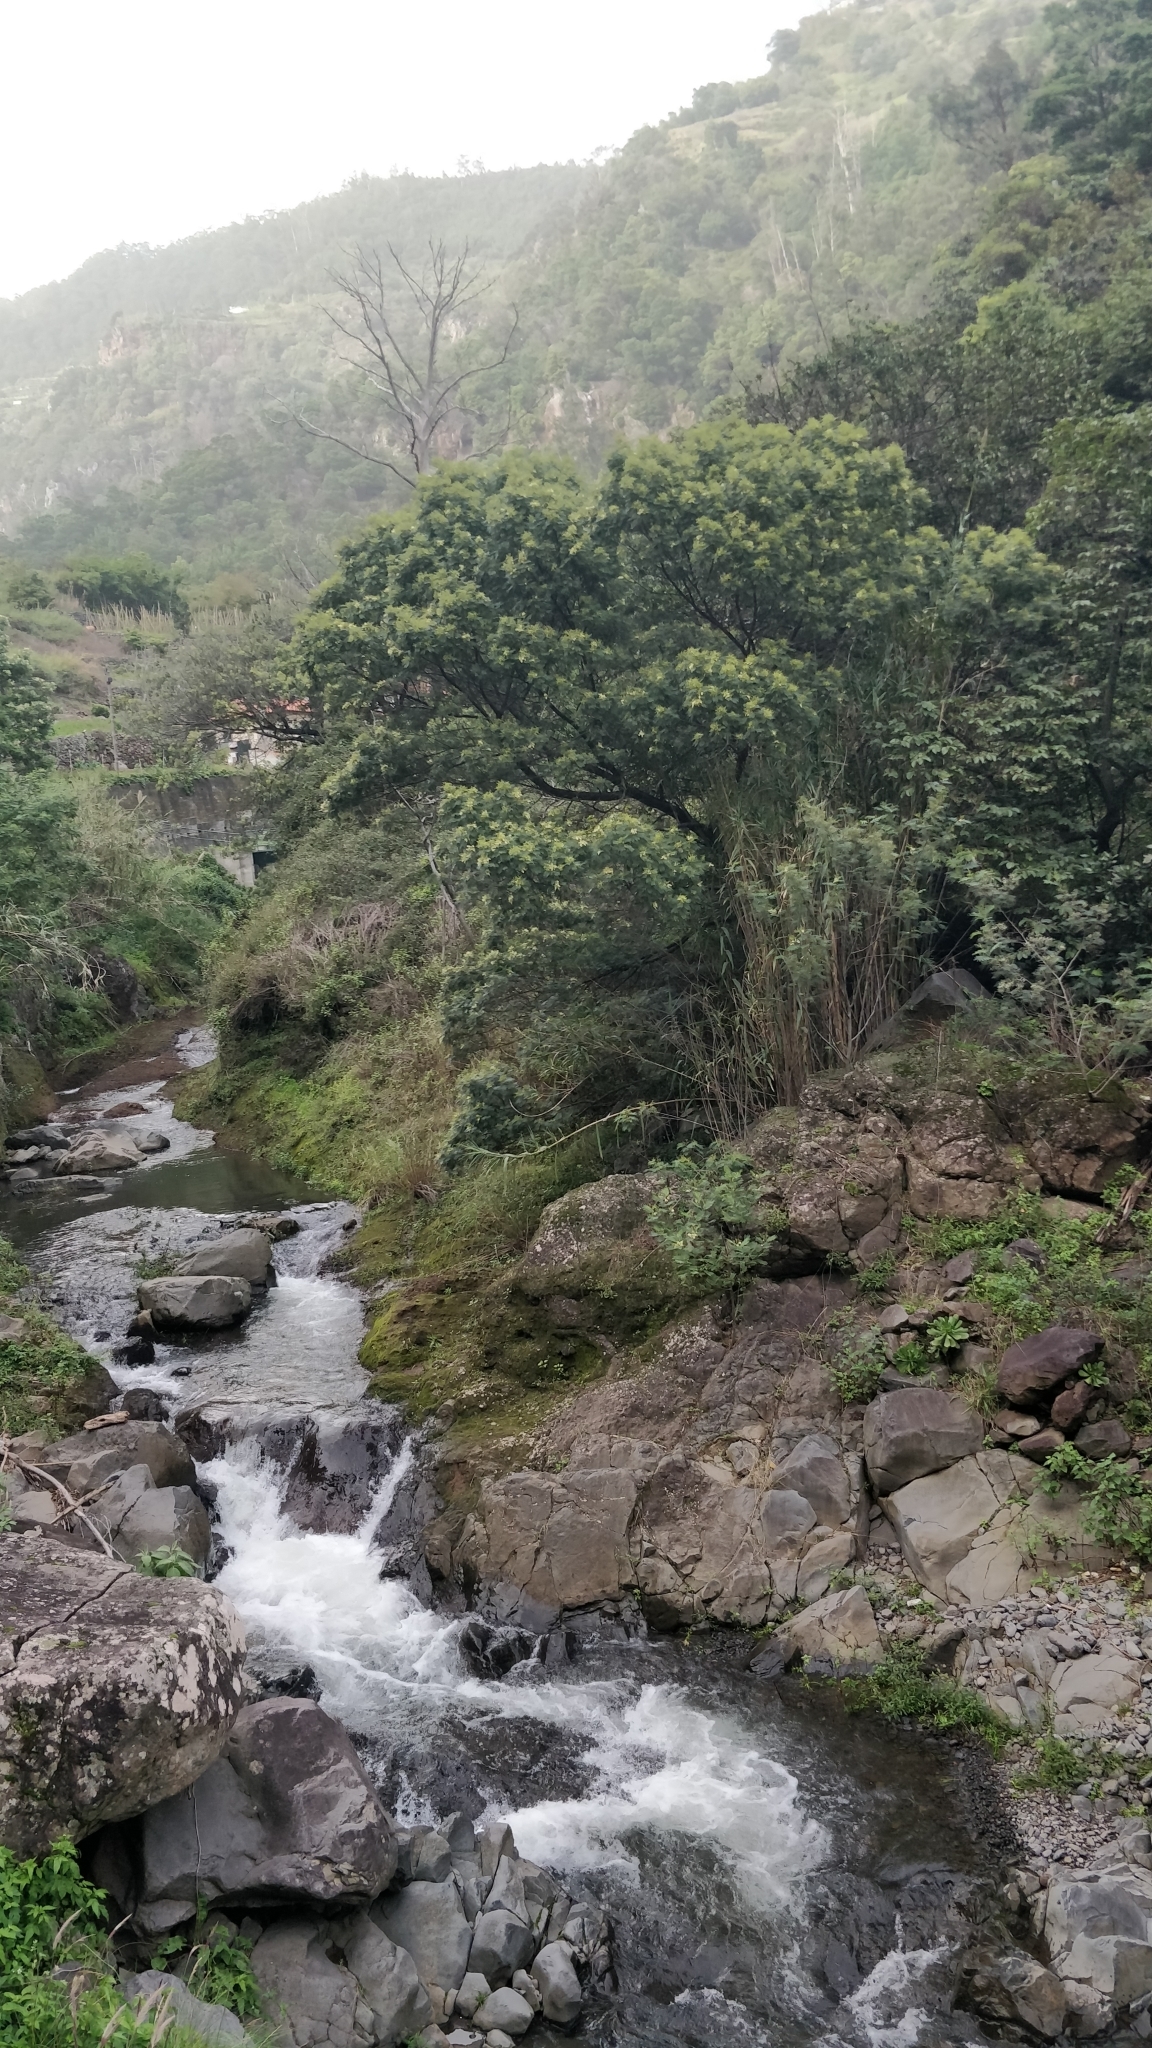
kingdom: Plantae
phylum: Tracheophyta
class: Magnoliopsida
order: Fabales
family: Fabaceae
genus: Acacia
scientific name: Acacia mearnsii
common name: Black wattle
